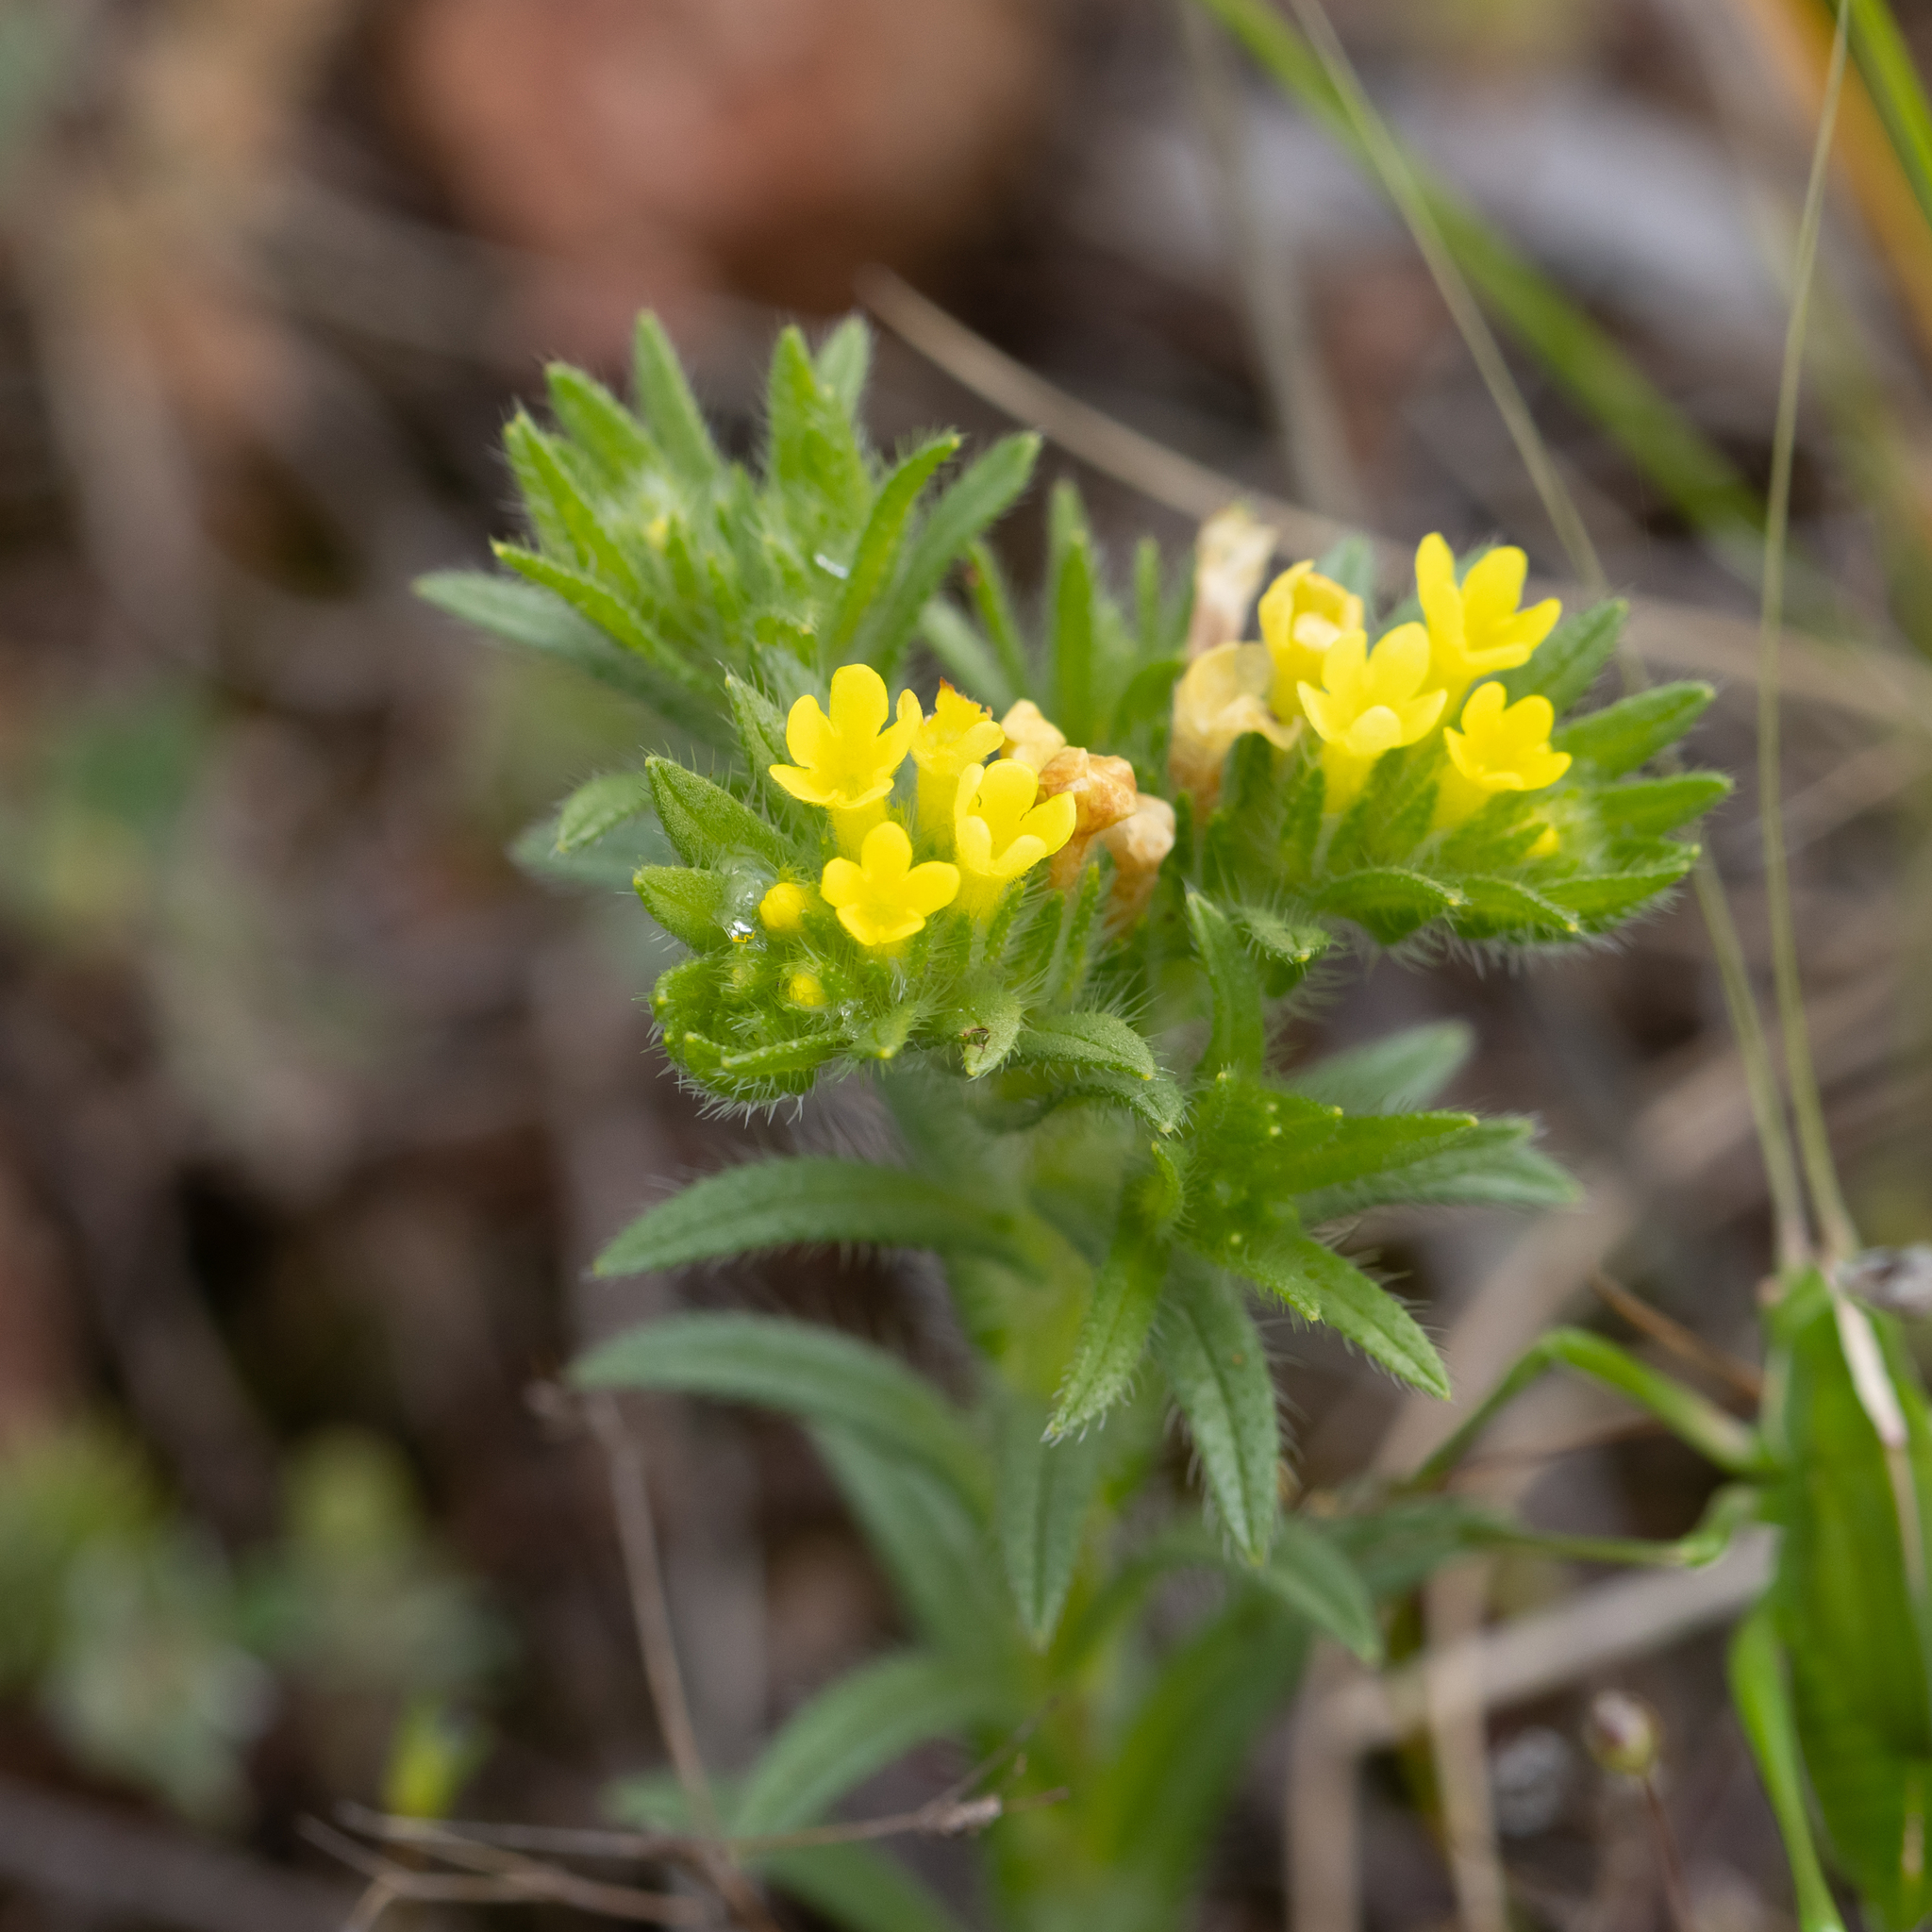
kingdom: Plantae
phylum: Tracheophyta
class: Magnoliopsida
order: Boraginales
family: Boraginaceae
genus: Neatostema
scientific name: Neatostema apulum
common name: Hairy sheepweed
